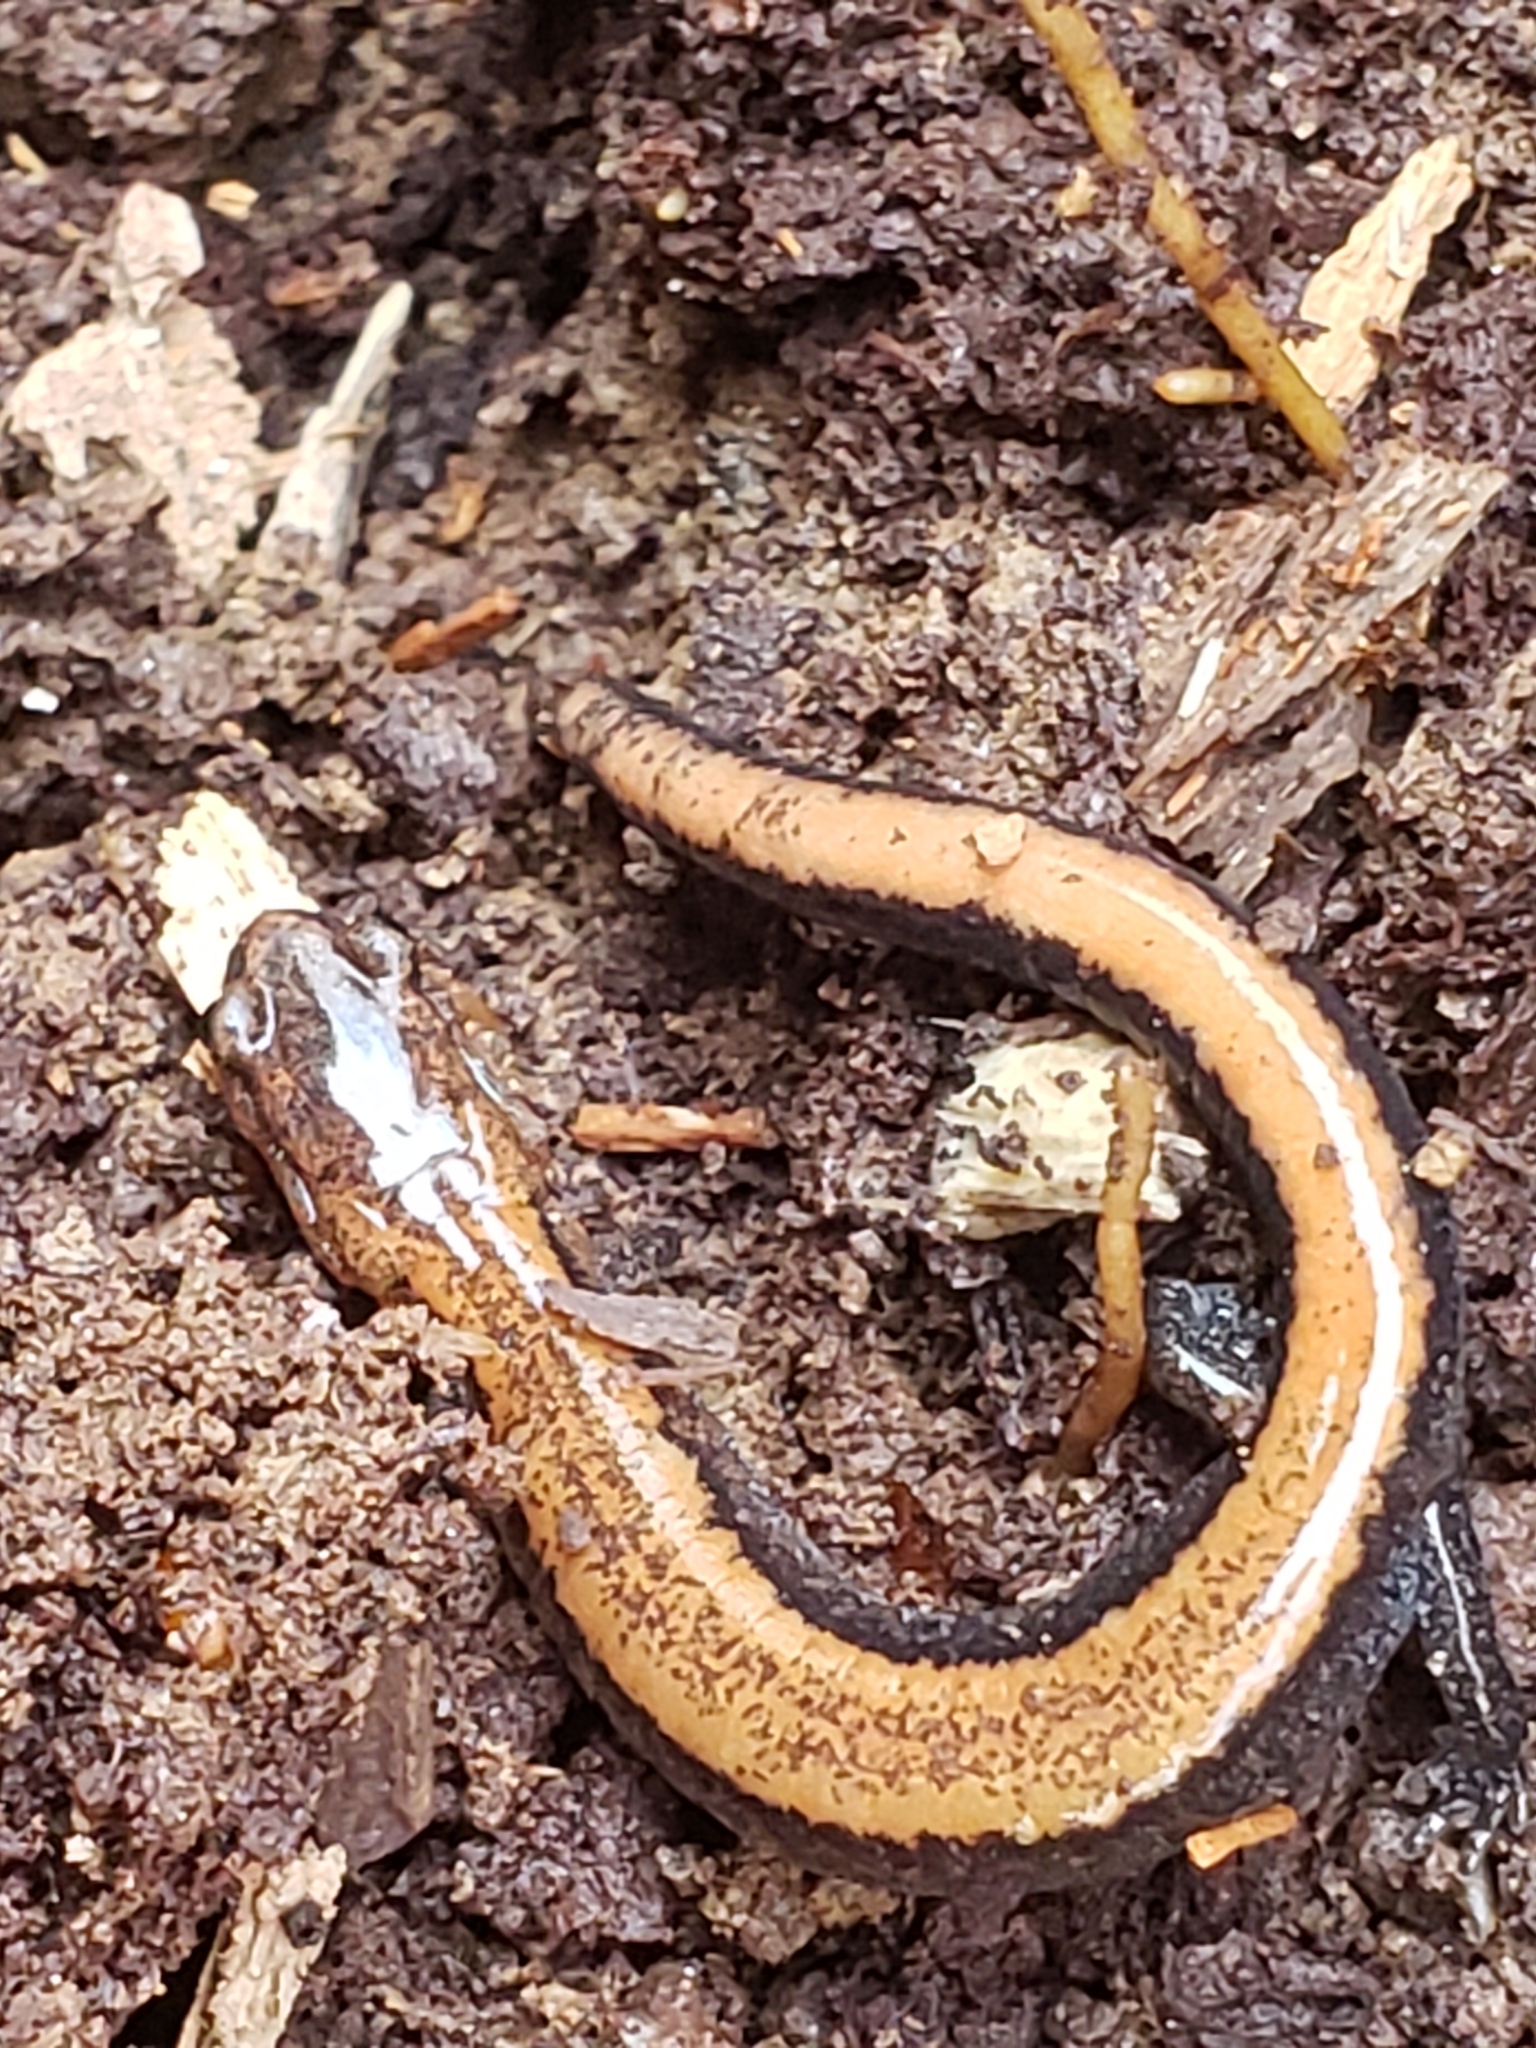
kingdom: Animalia
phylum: Chordata
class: Amphibia
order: Caudata
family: Plethodontidae
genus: Plethodon
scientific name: Plethodon cinereus
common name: Redback salamander
